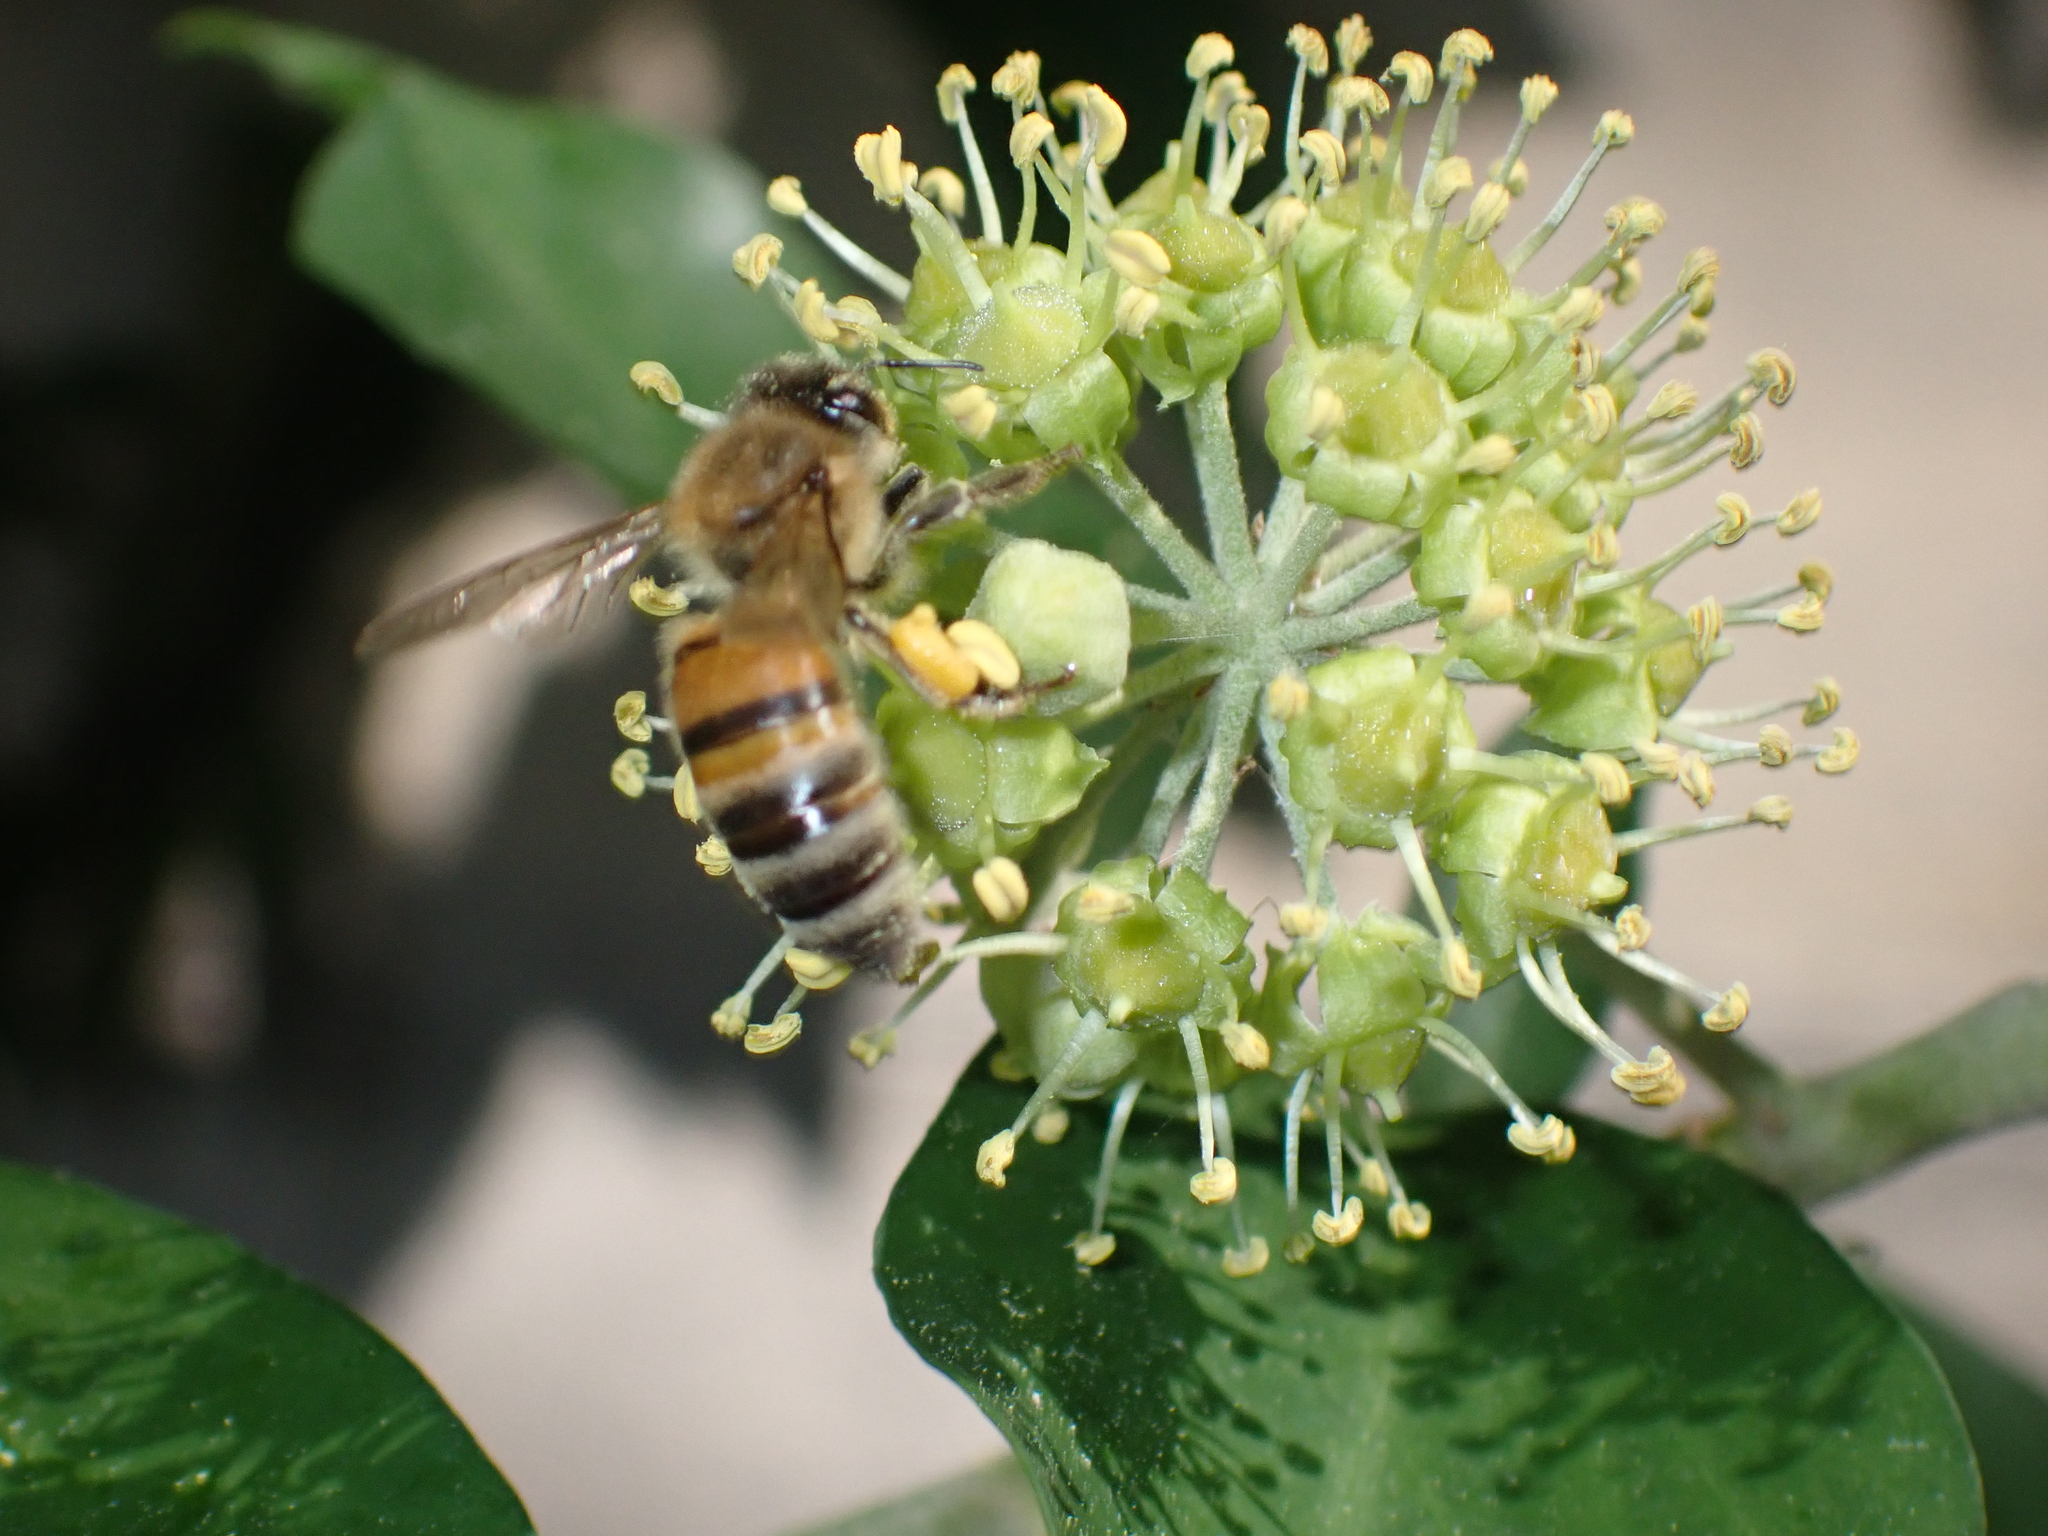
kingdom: Animalia
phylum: Arthropoda
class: Insecta
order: Hymenoptera
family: Apidae
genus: Apis
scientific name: Apis mellifera
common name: Honey bee
